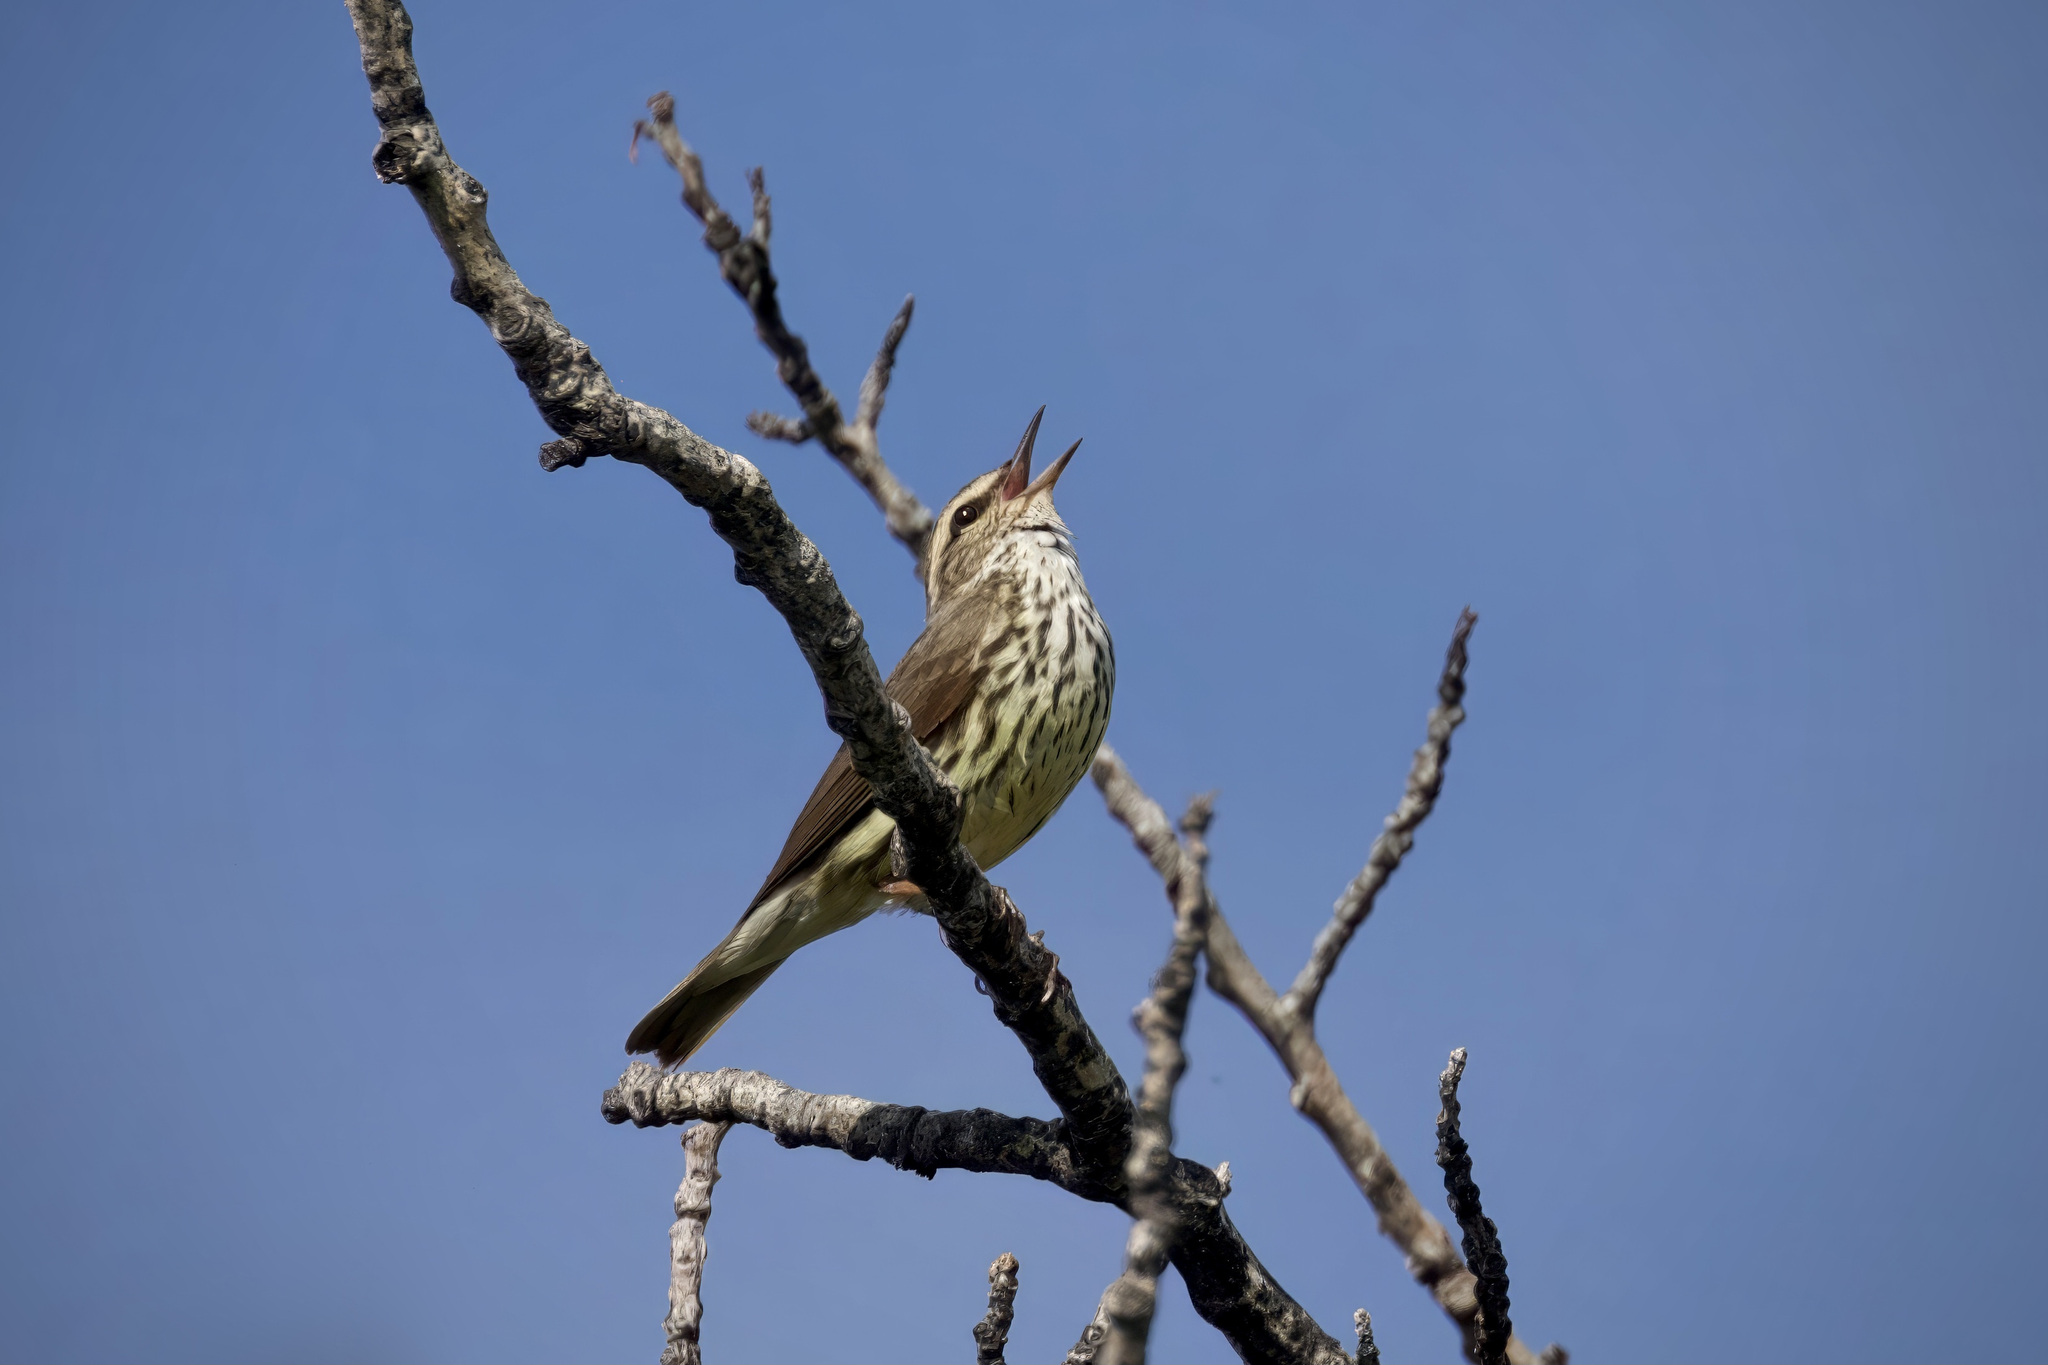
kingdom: Animalia
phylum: Chordata
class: Aves
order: Passeriformes
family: Parulidae
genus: Parkesia
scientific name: Parkesia noveboracensis
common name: Northern waterthrush
